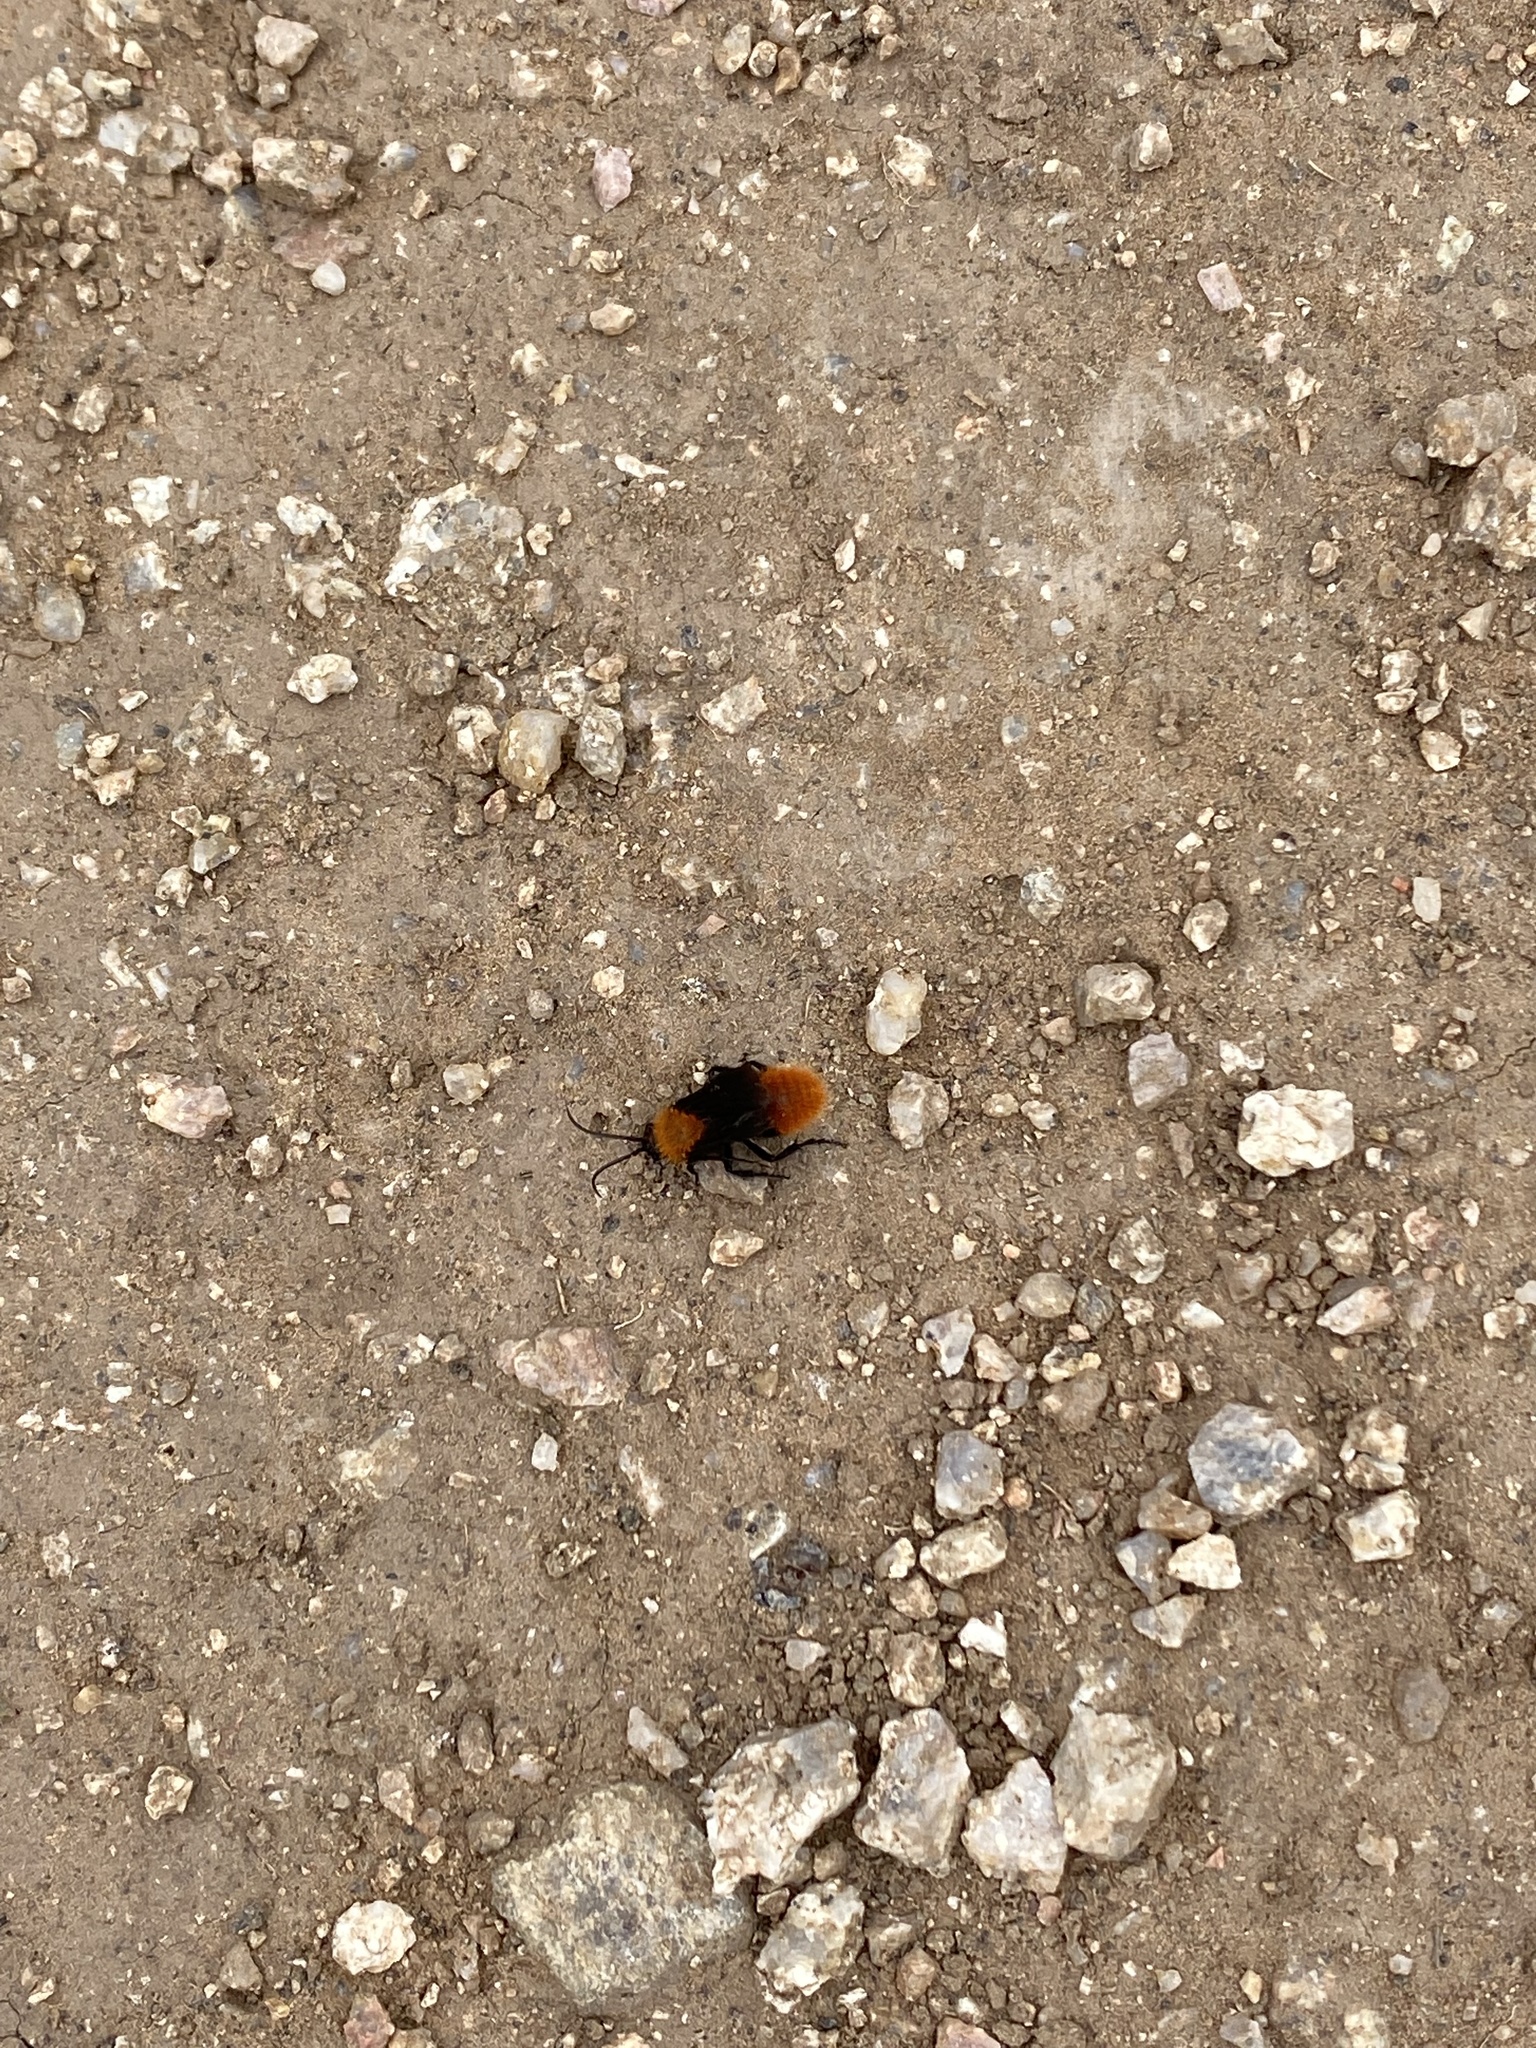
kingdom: Animalia
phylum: Arthropoda
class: Insecta
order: Hymenoptera
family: Mutillidae
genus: Dasymutilla
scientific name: Dasymutilla vestita
